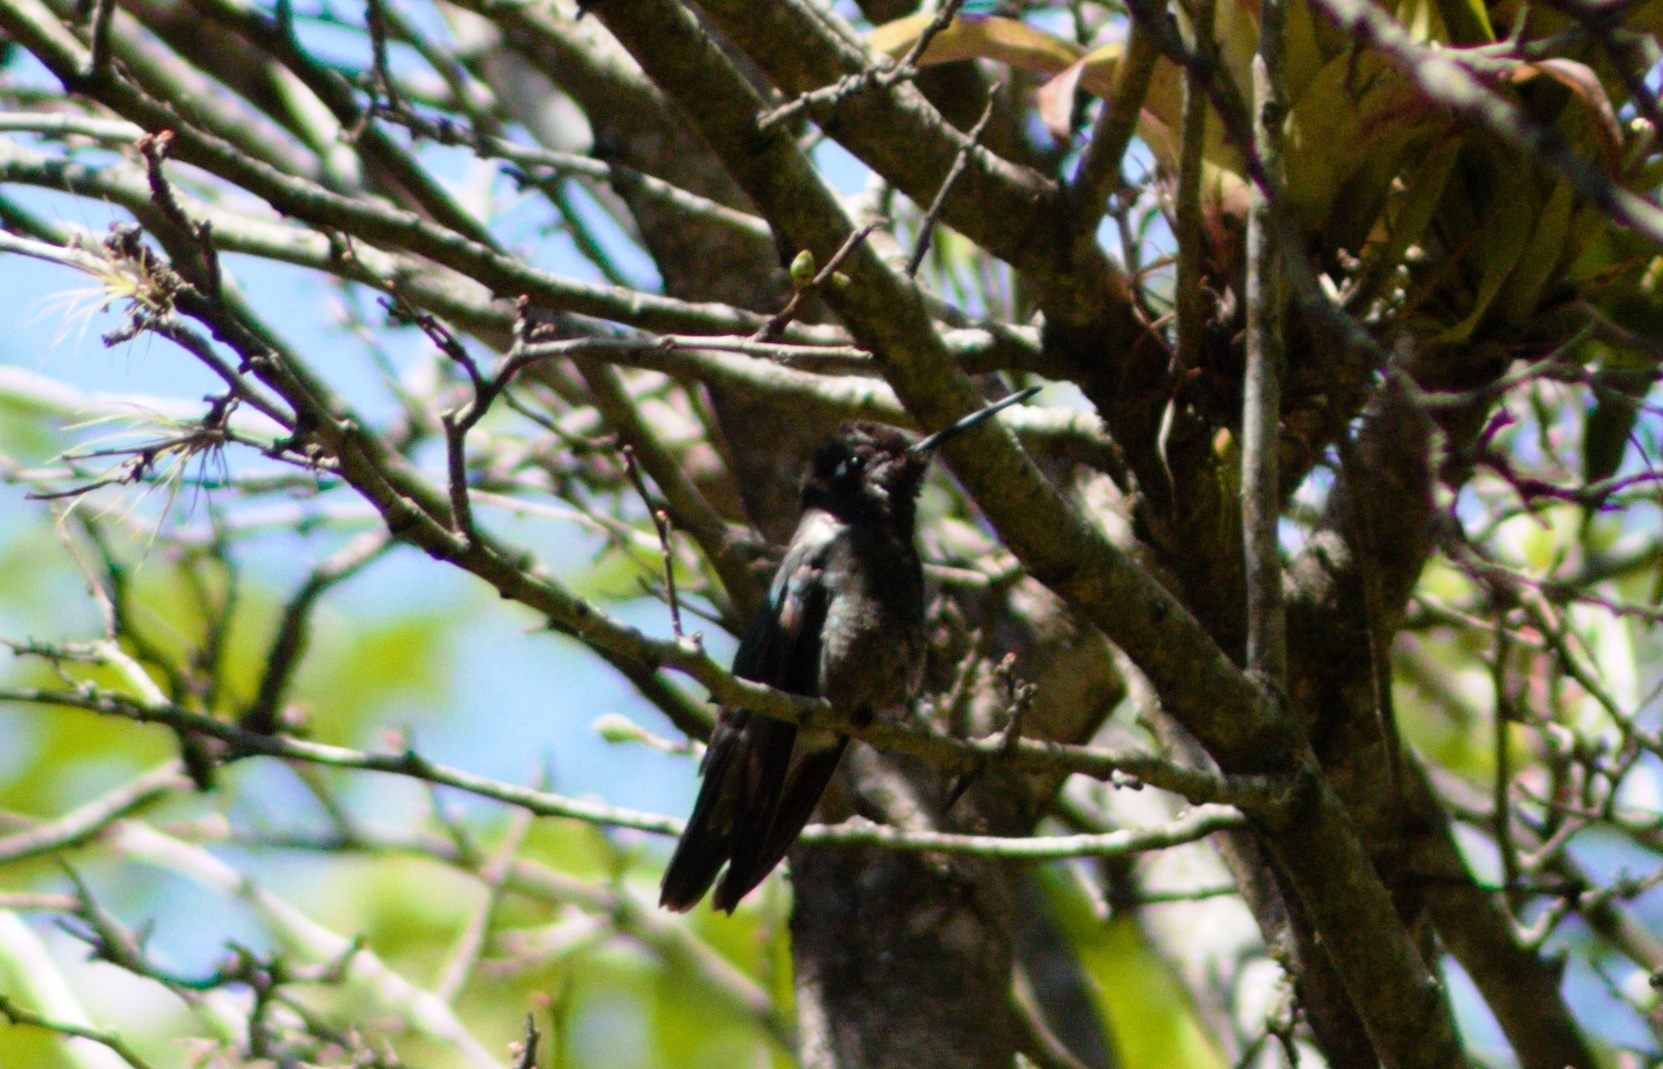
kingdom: Animalia
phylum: Chordata
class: Aves
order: Apodiformes
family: Trochilidae
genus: Eugenes
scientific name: Eugenes fulgens
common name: Magnificent hummingbird
